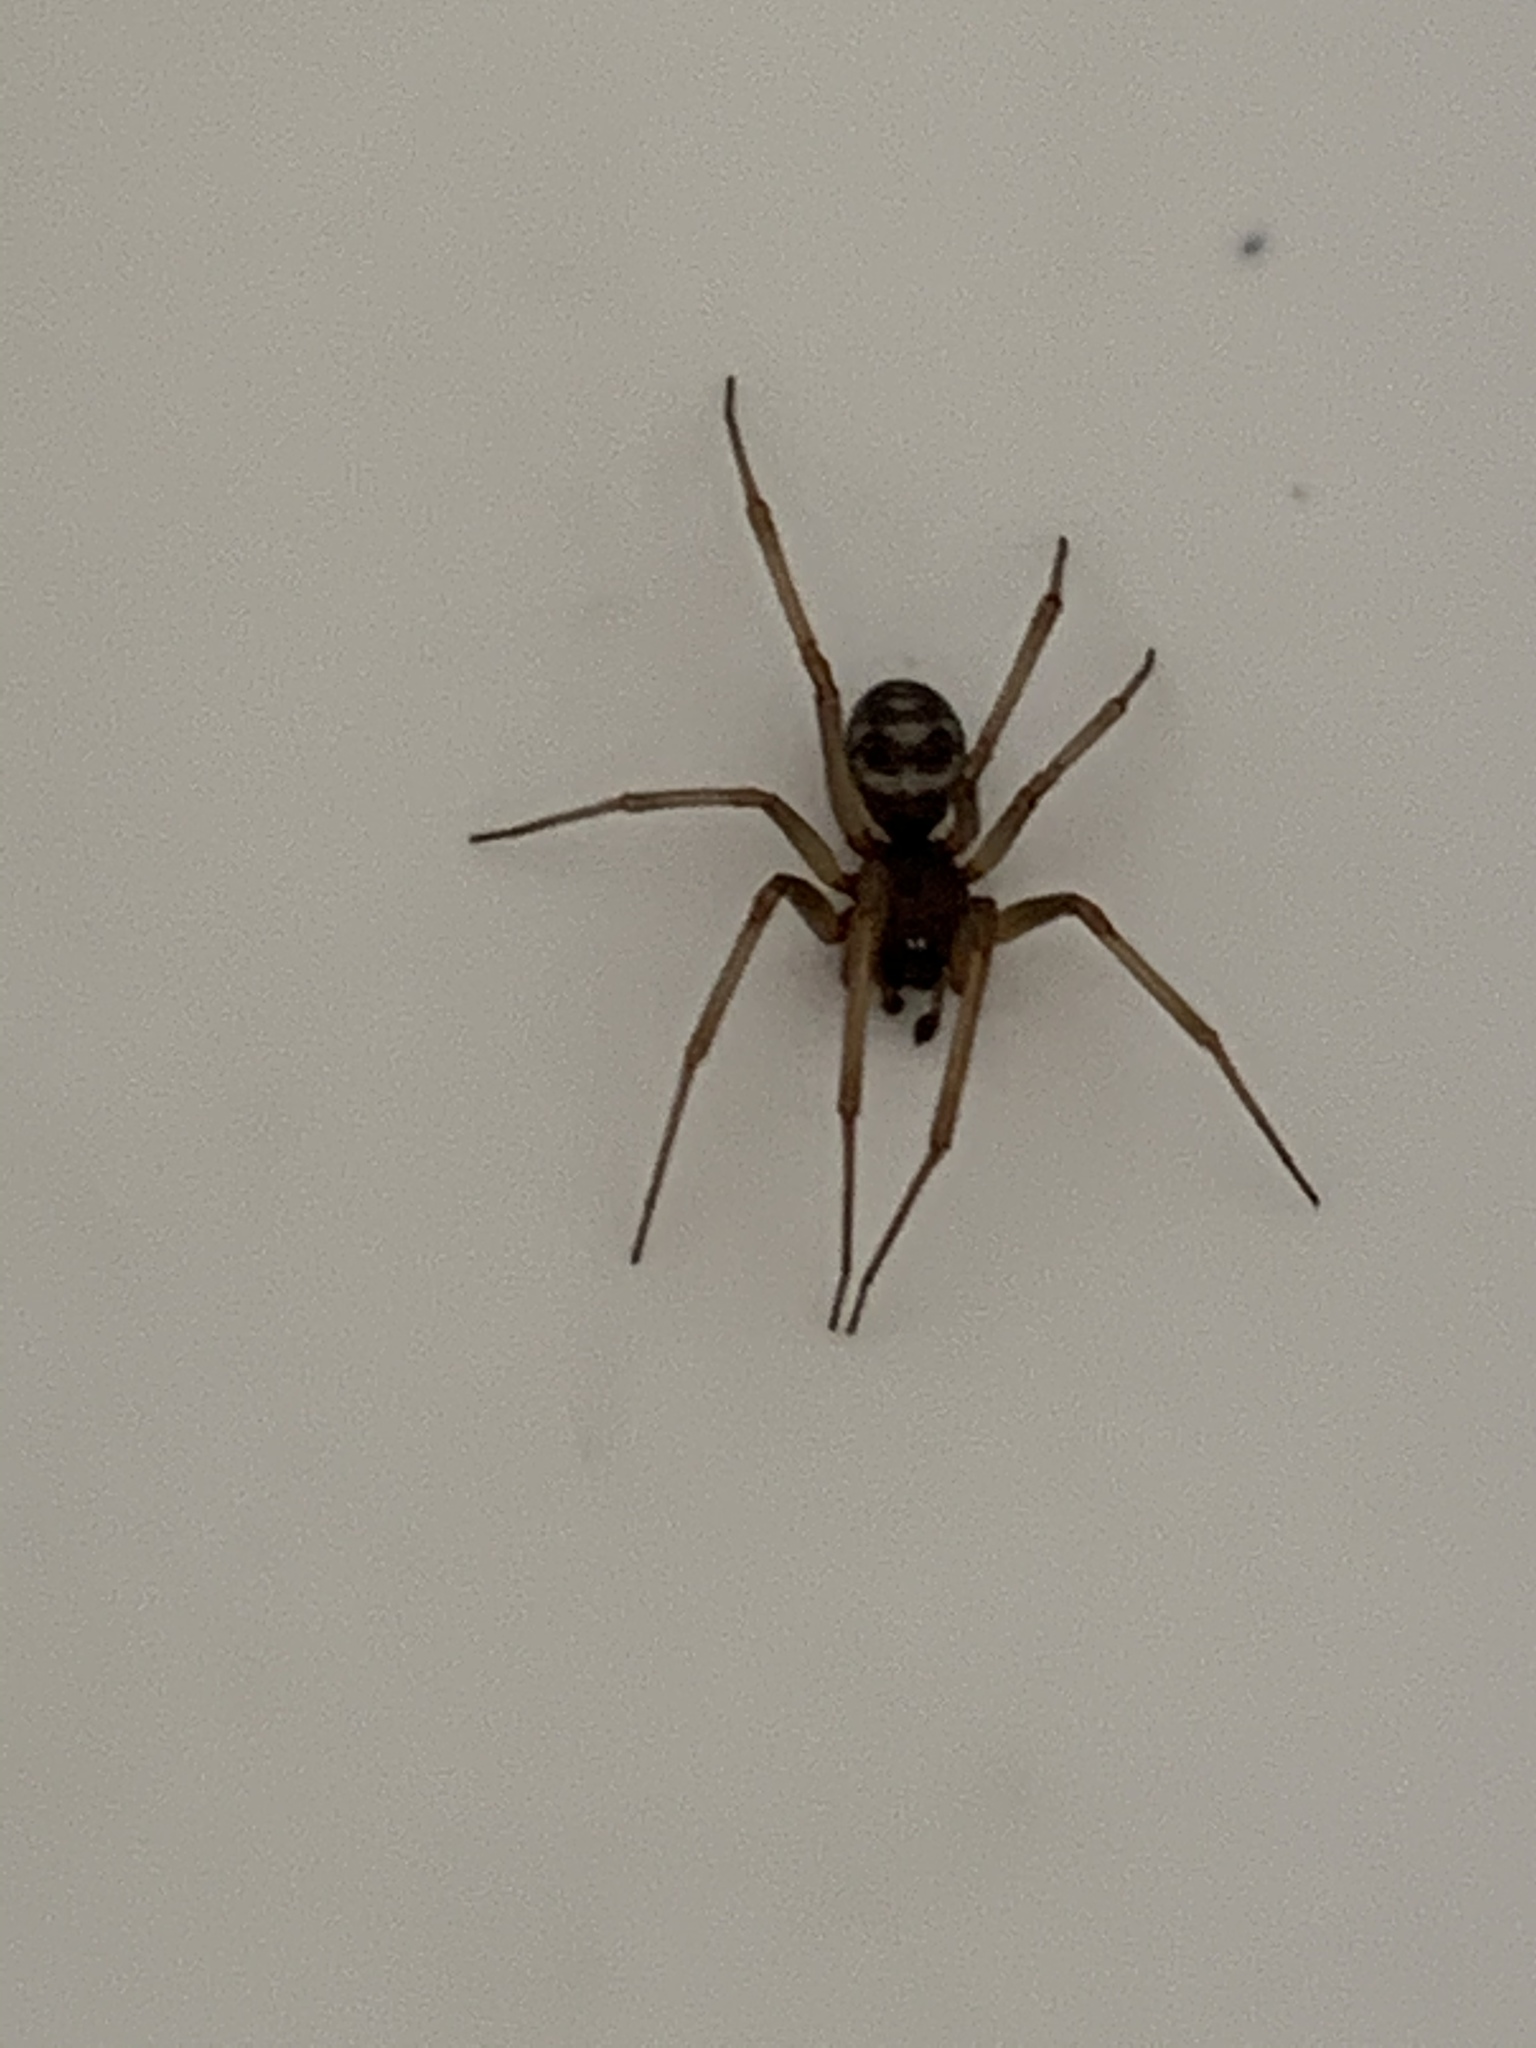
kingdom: Animalia
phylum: Arthropoda
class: Arachnida
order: Araneae
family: Theridiidae
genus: Steatoda
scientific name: Steatoda grossa
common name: False black widow
